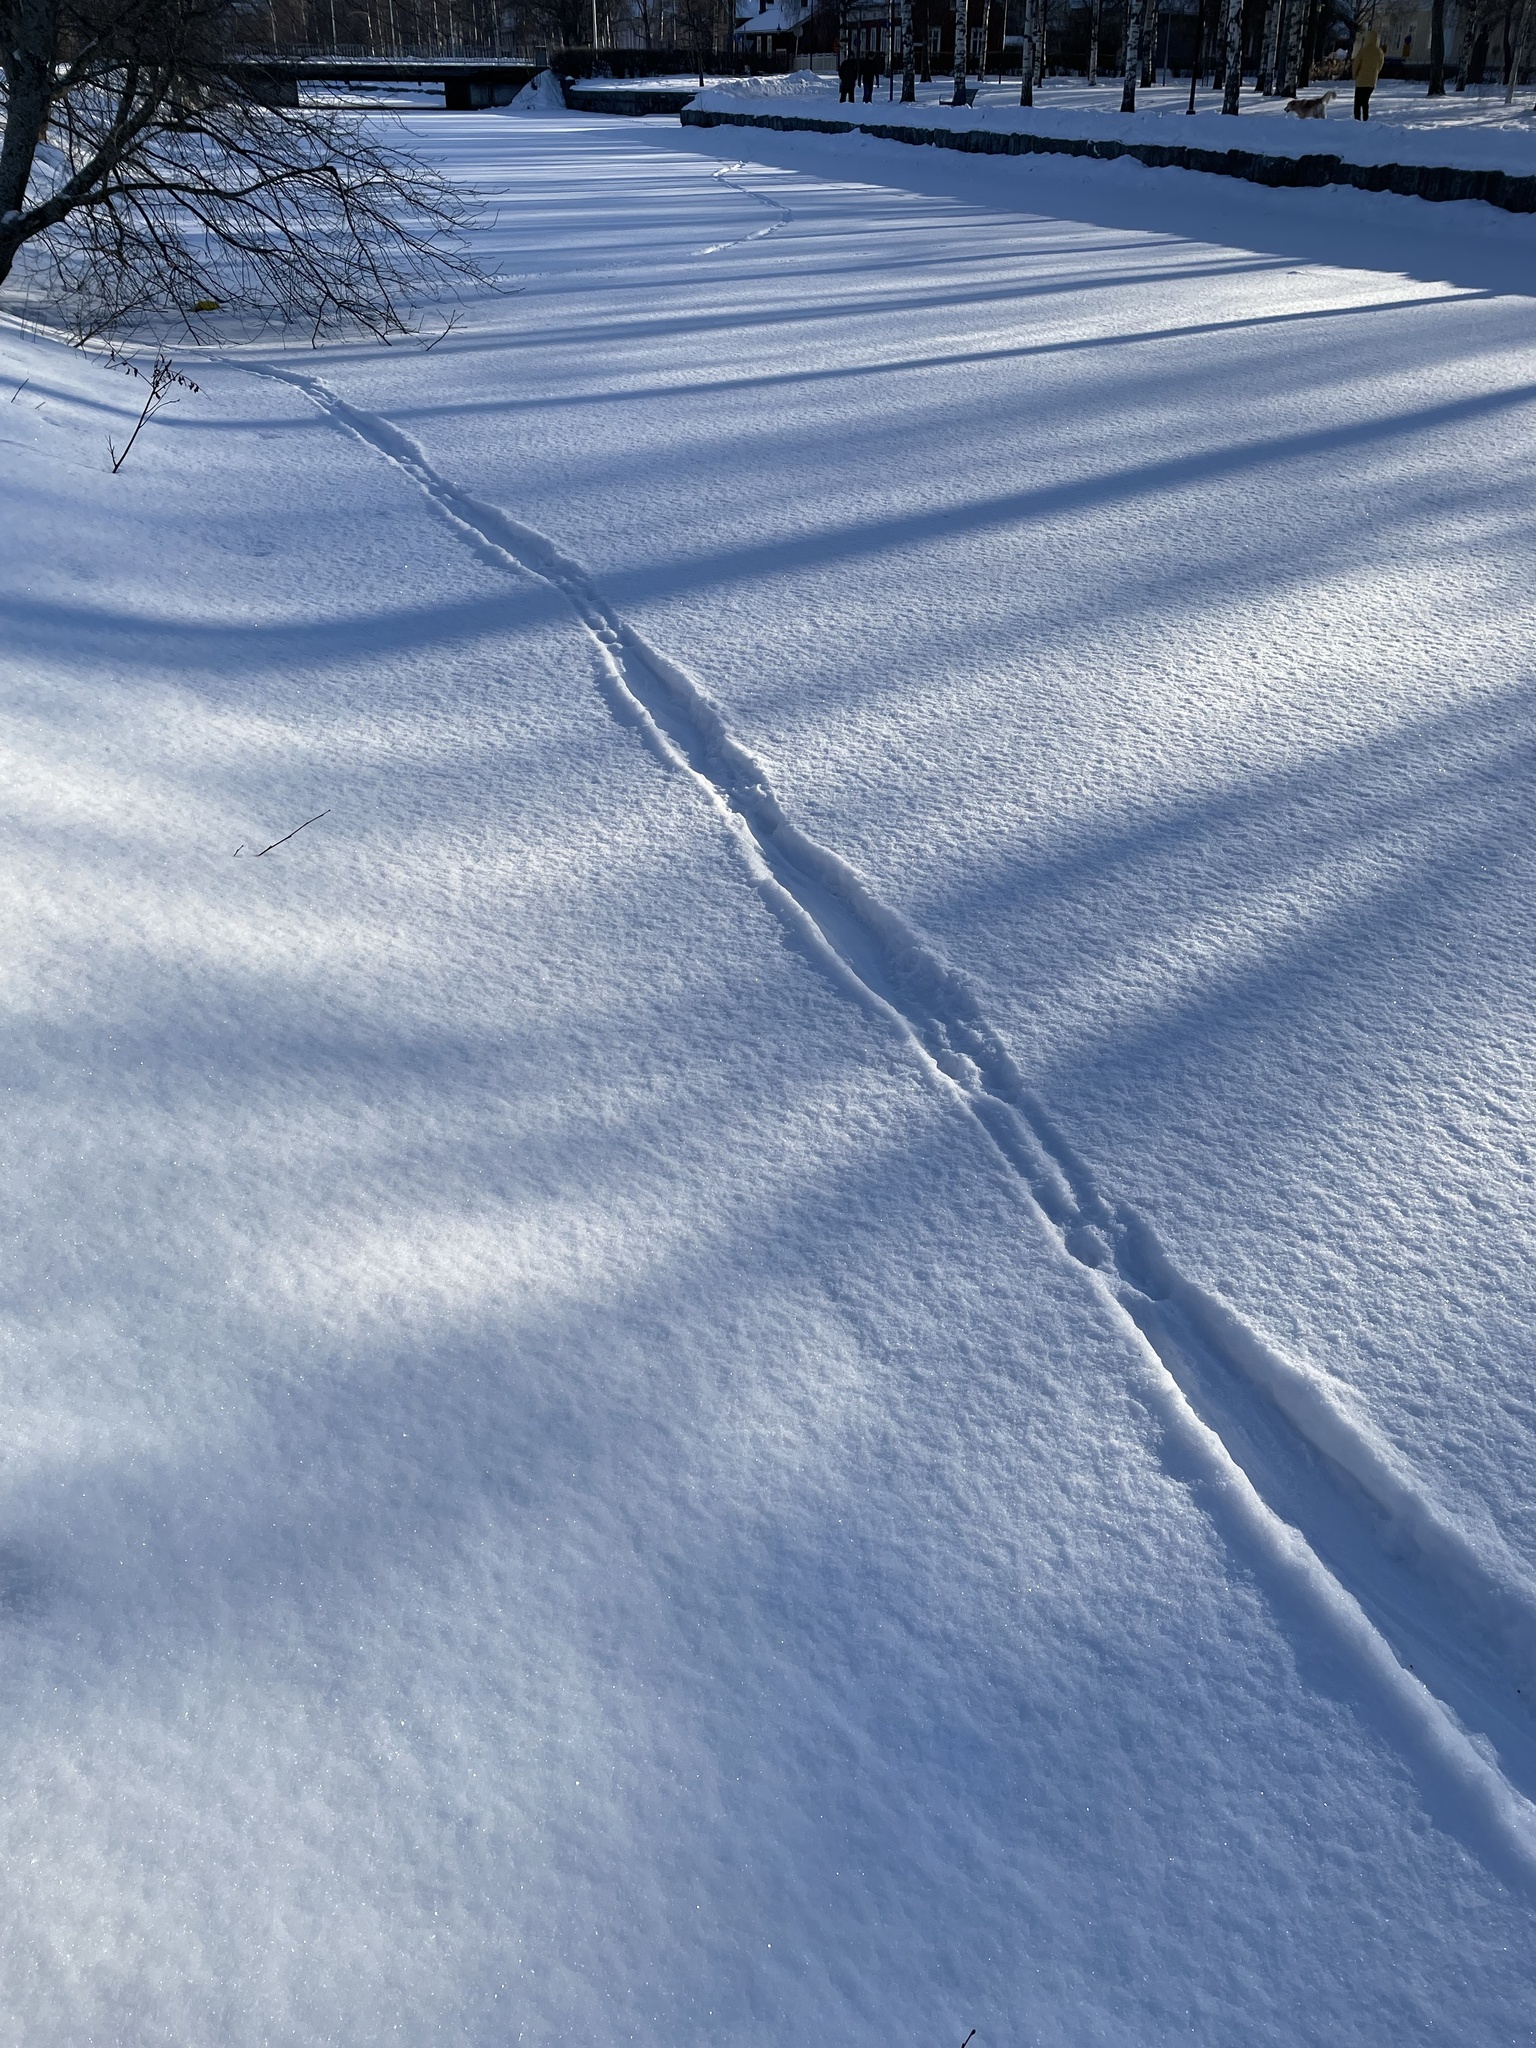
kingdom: Animalia
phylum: Chordata
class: Mammalia
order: Carnivora
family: Mustelidae
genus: Lutra
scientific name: Lutra lutra
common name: European otter
